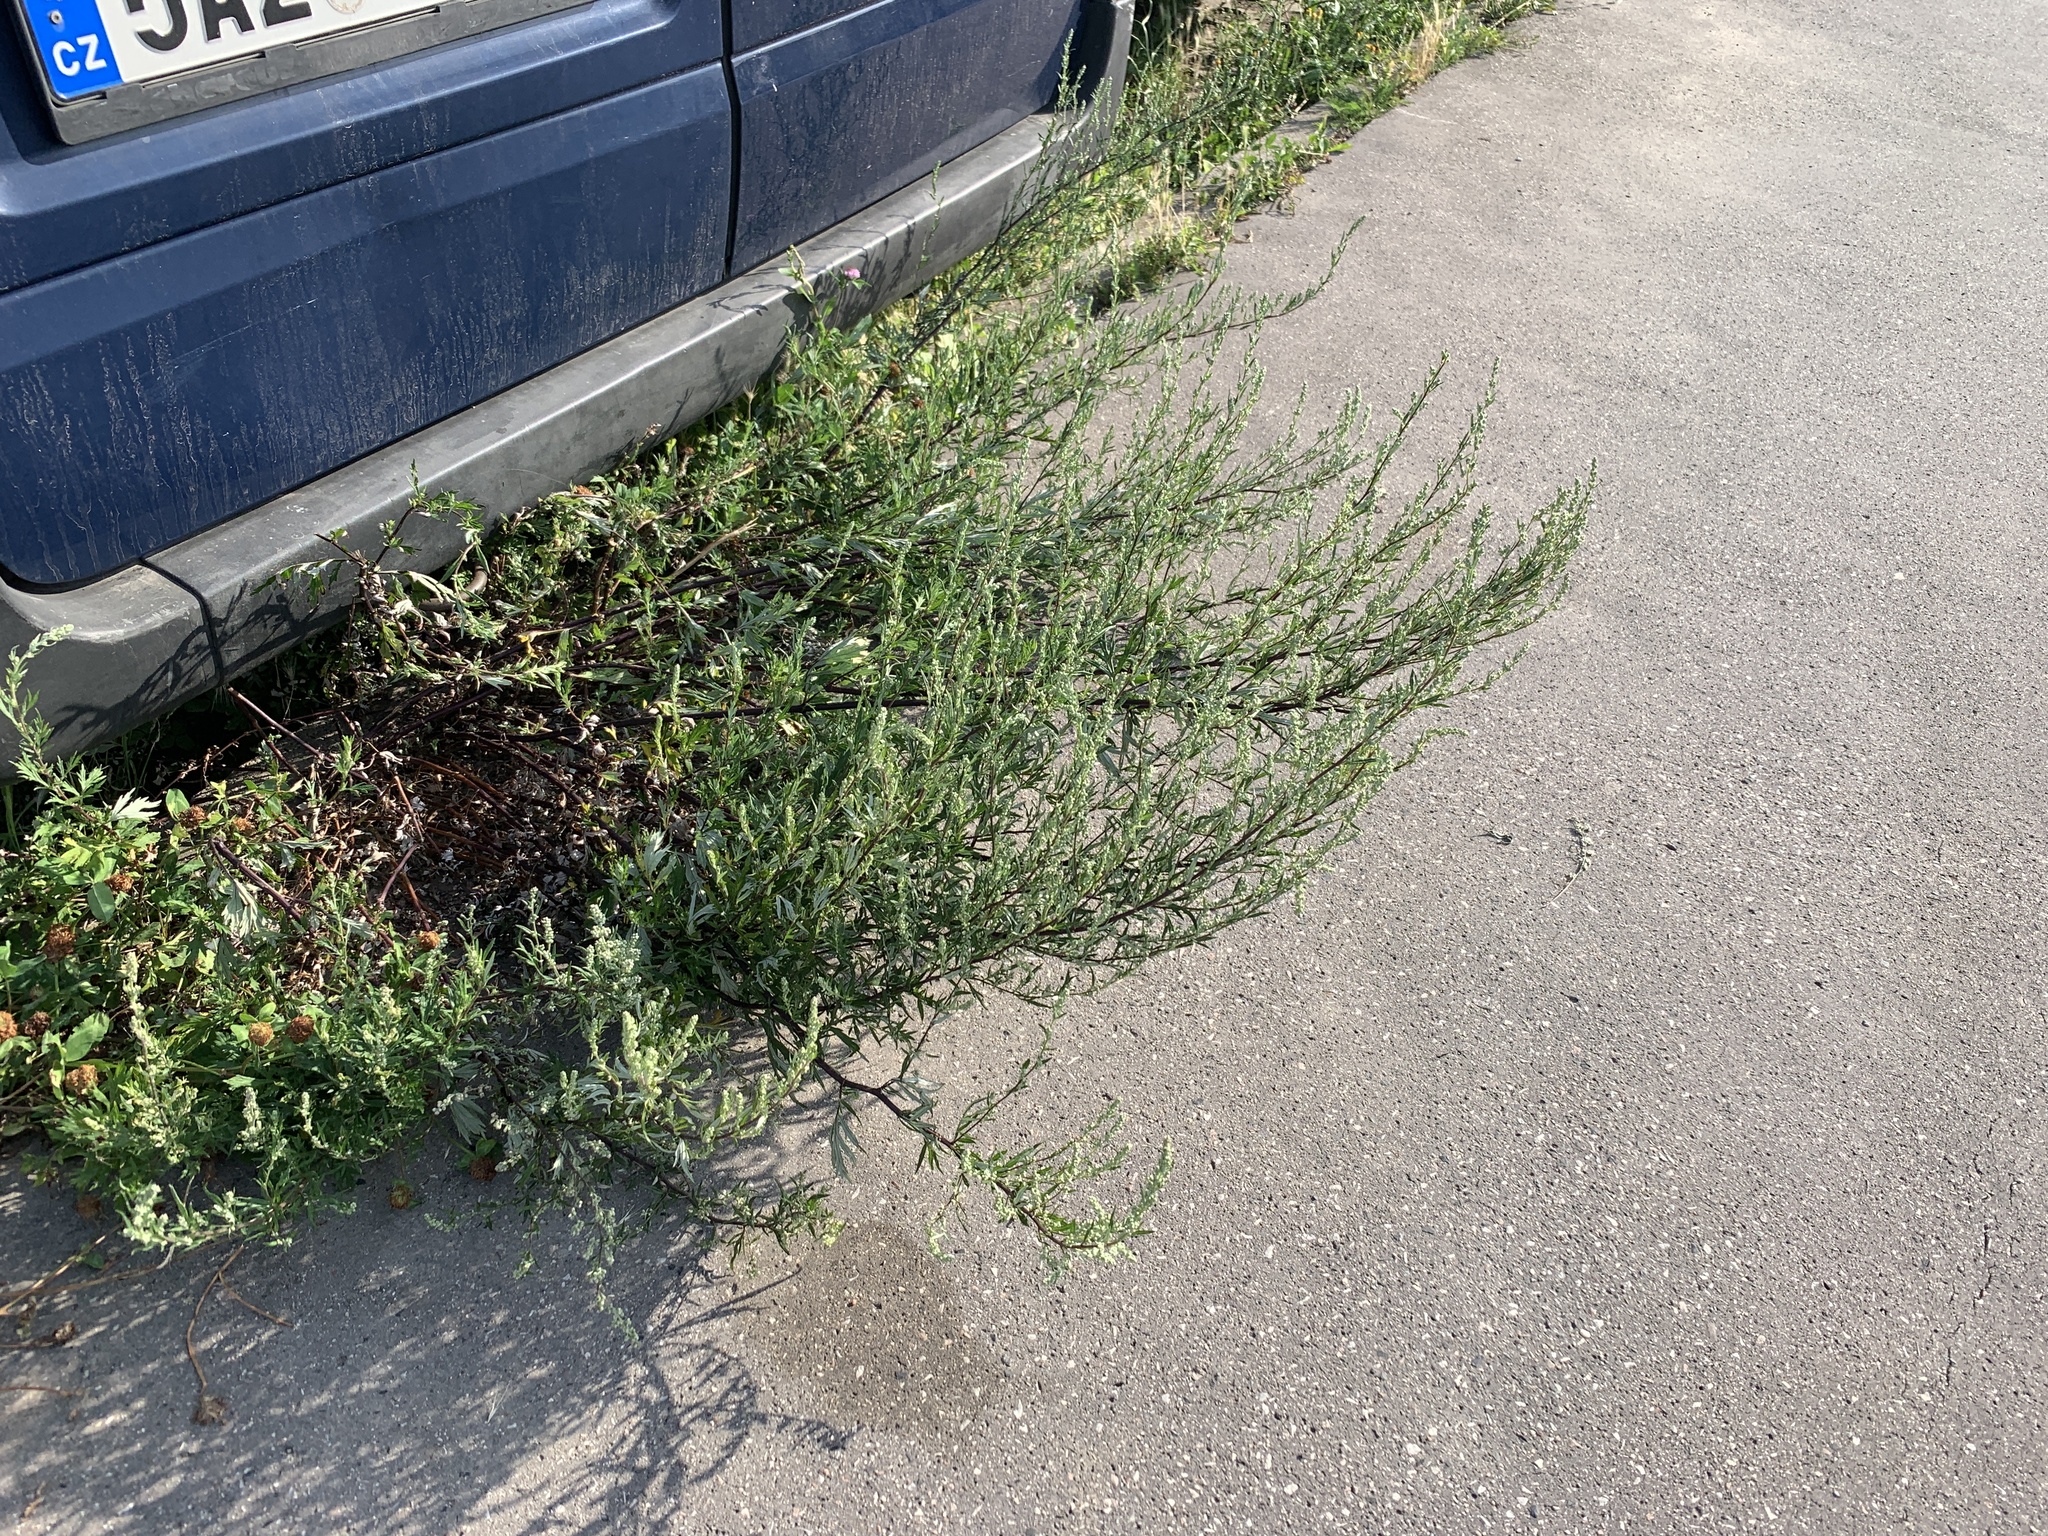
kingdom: Plantae
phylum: Tracheophyta
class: Magnoliopsida
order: Asterales
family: Asteraceae
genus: Artemisia
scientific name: Artemisia vulgaris
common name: Mugwort
